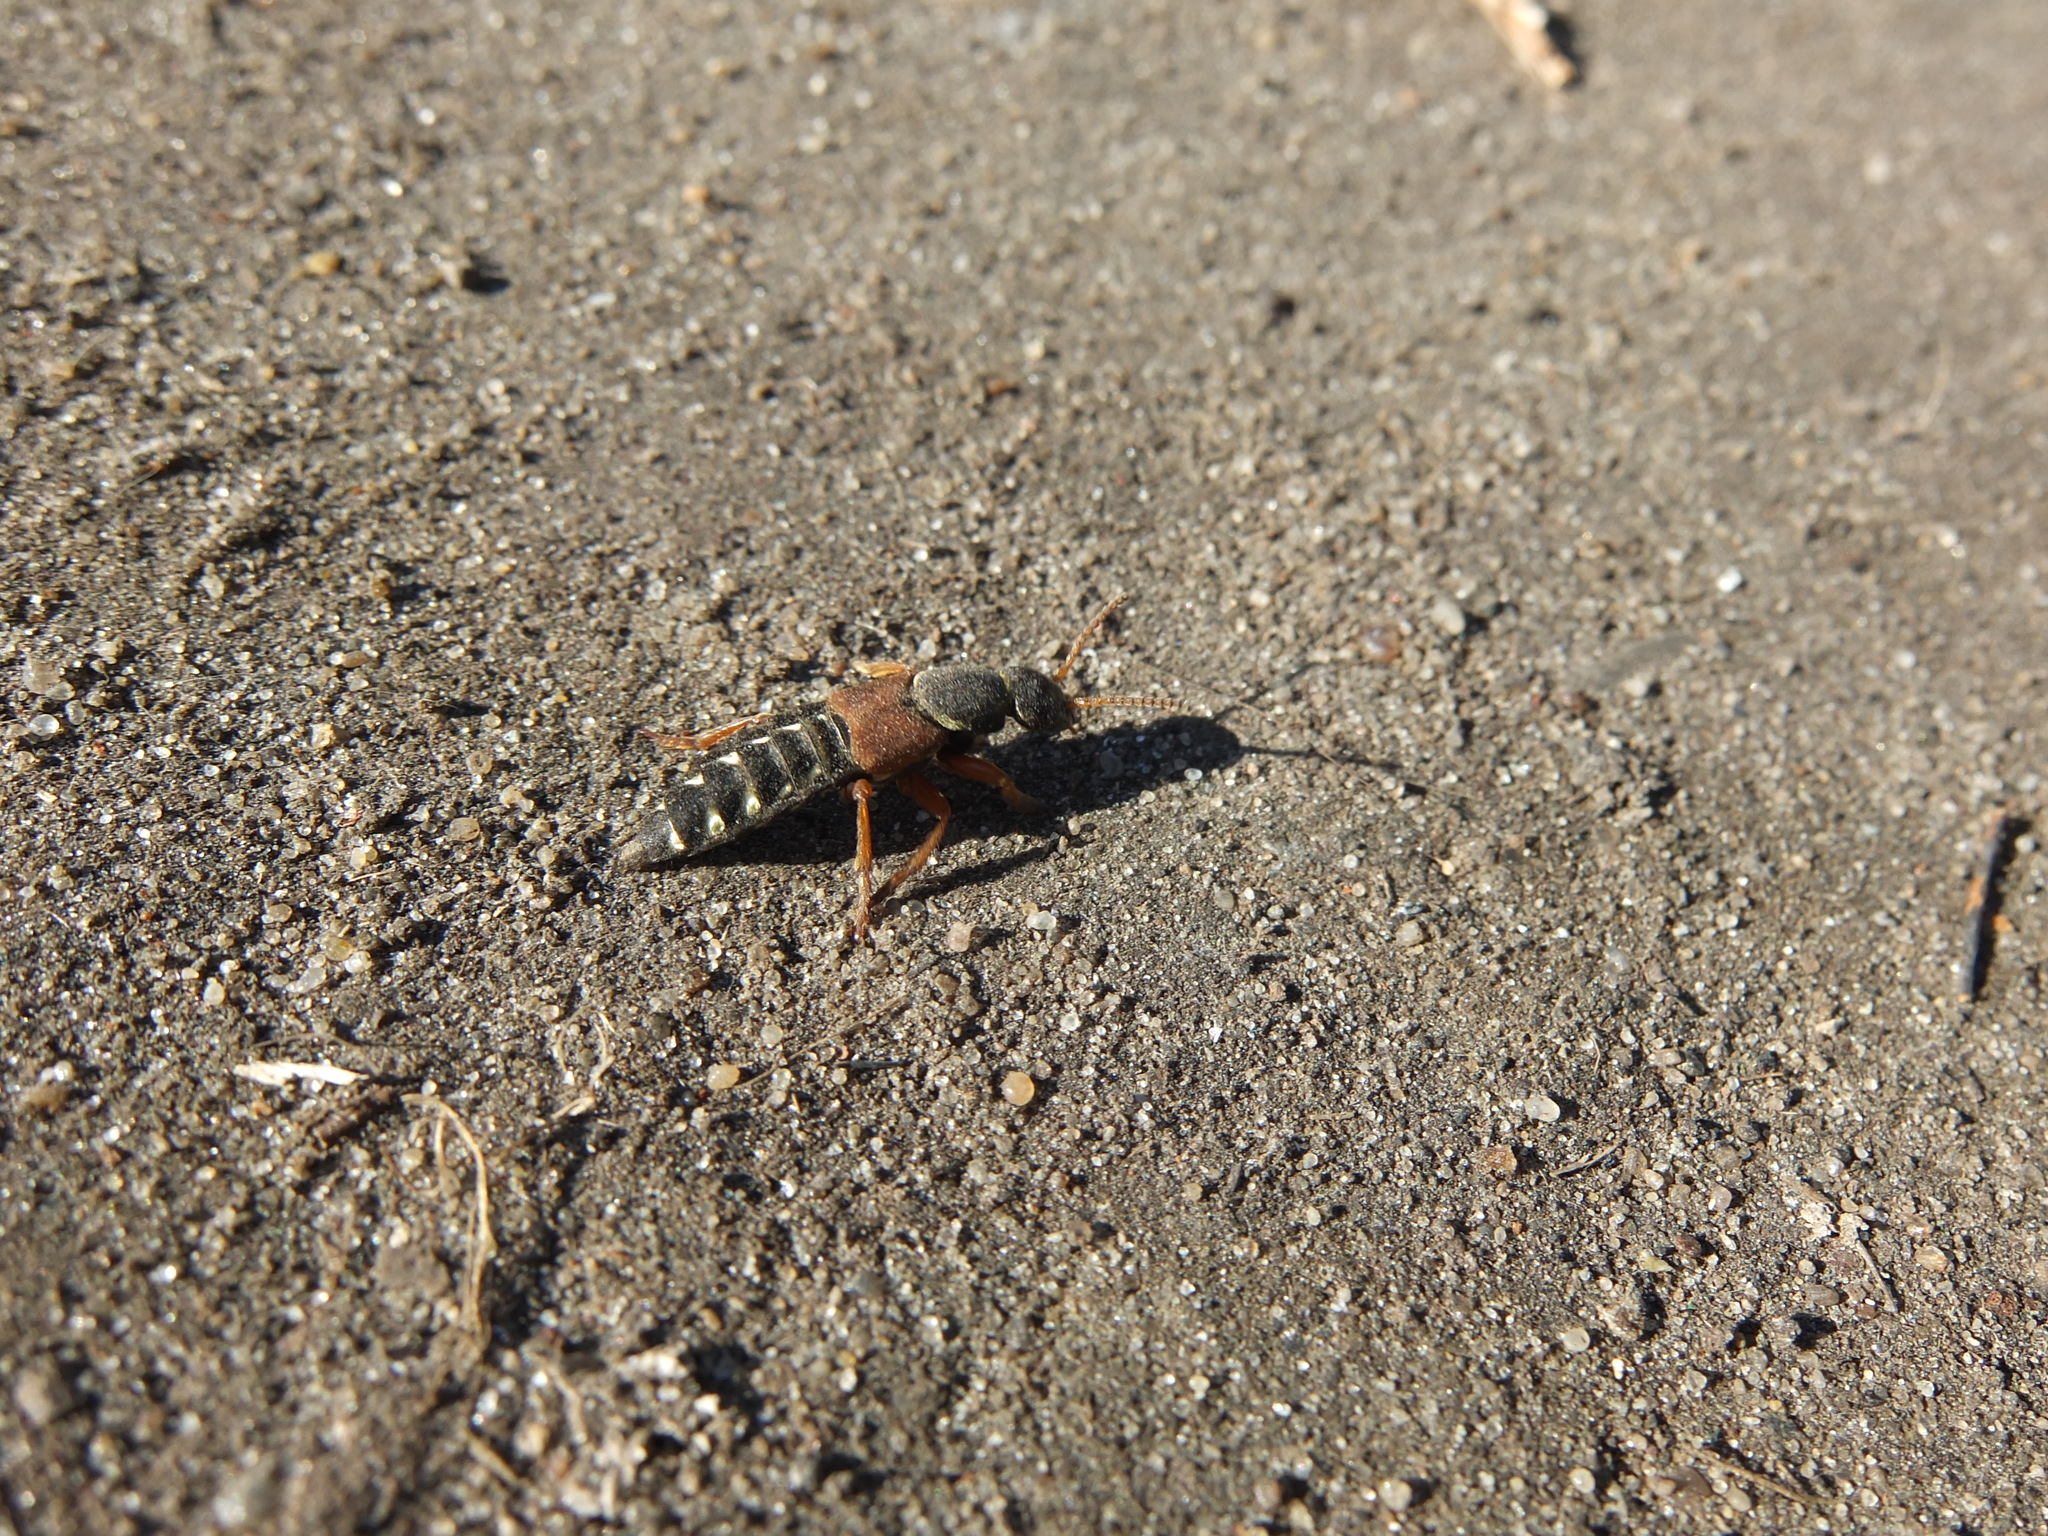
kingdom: Animalia
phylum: Arthropoda
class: Insecta
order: Coleoptera
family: Staphylinidae
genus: Staphylinus
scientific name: Staphylinus caesareus
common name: Staph beetle
